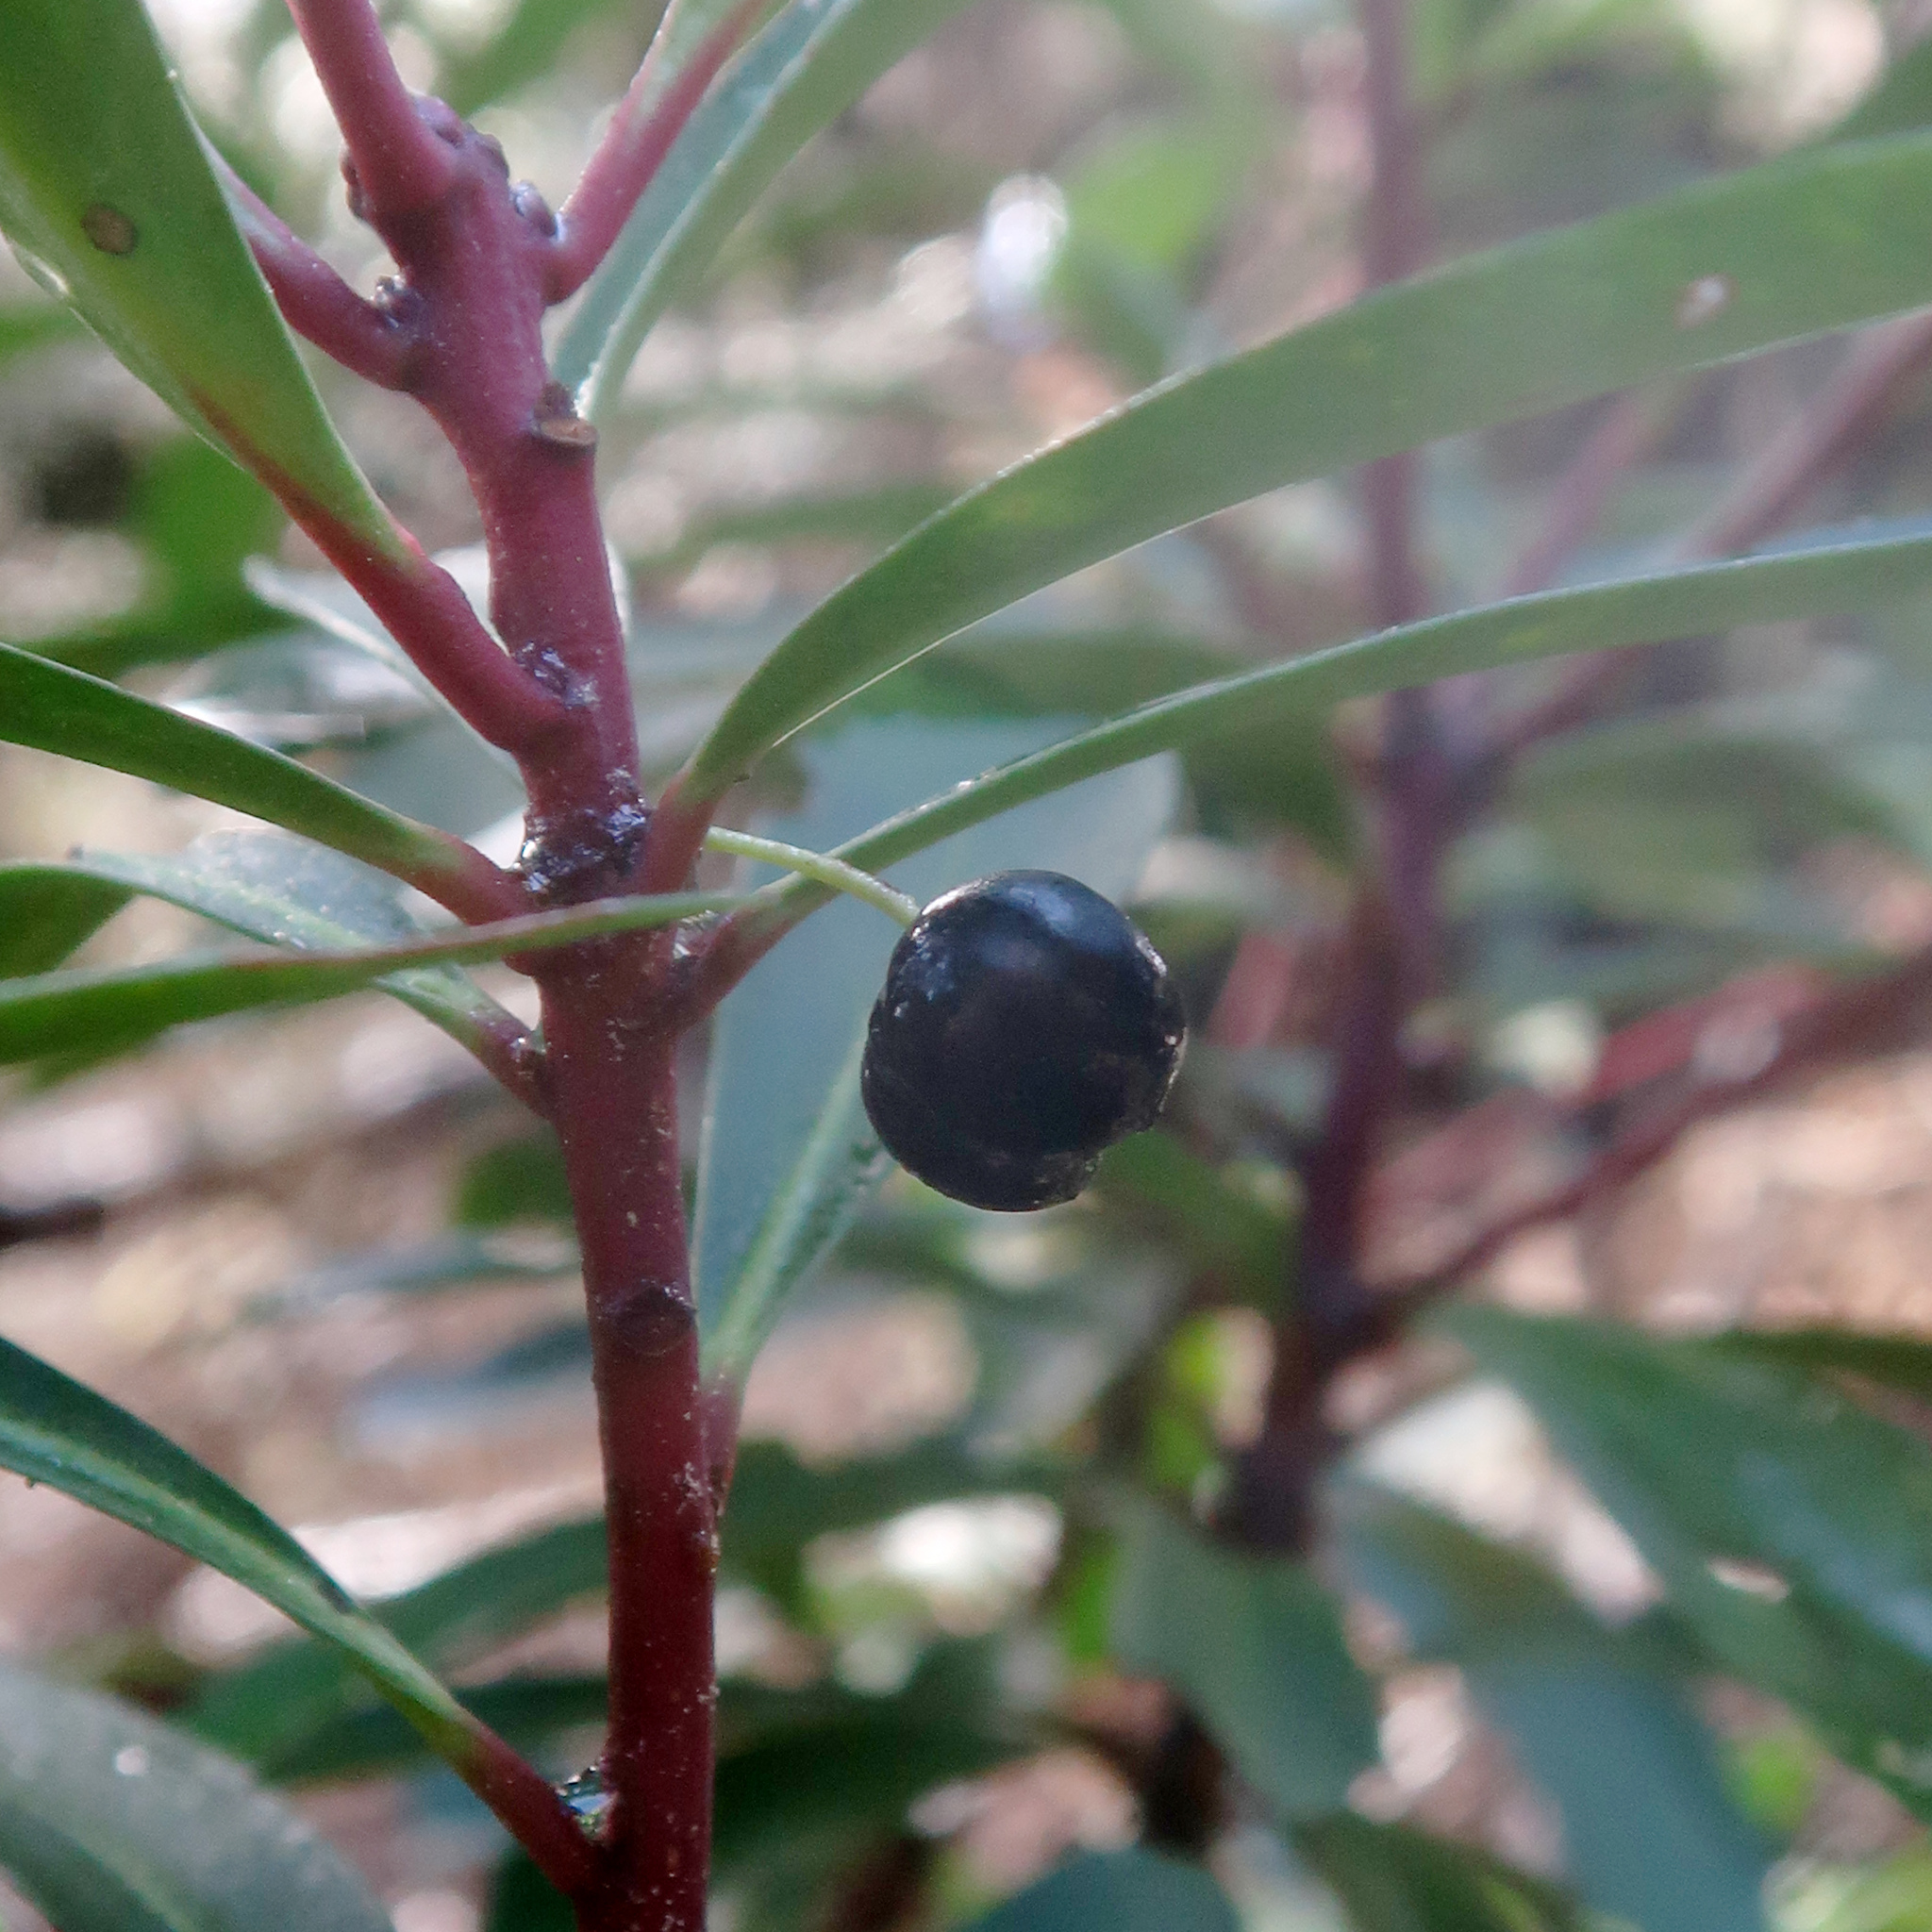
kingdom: Plantae
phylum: Tracheophyta
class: Magnoliopsida
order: Canellales
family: Winteraceae
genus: Drimys
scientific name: Drimys aromatica
